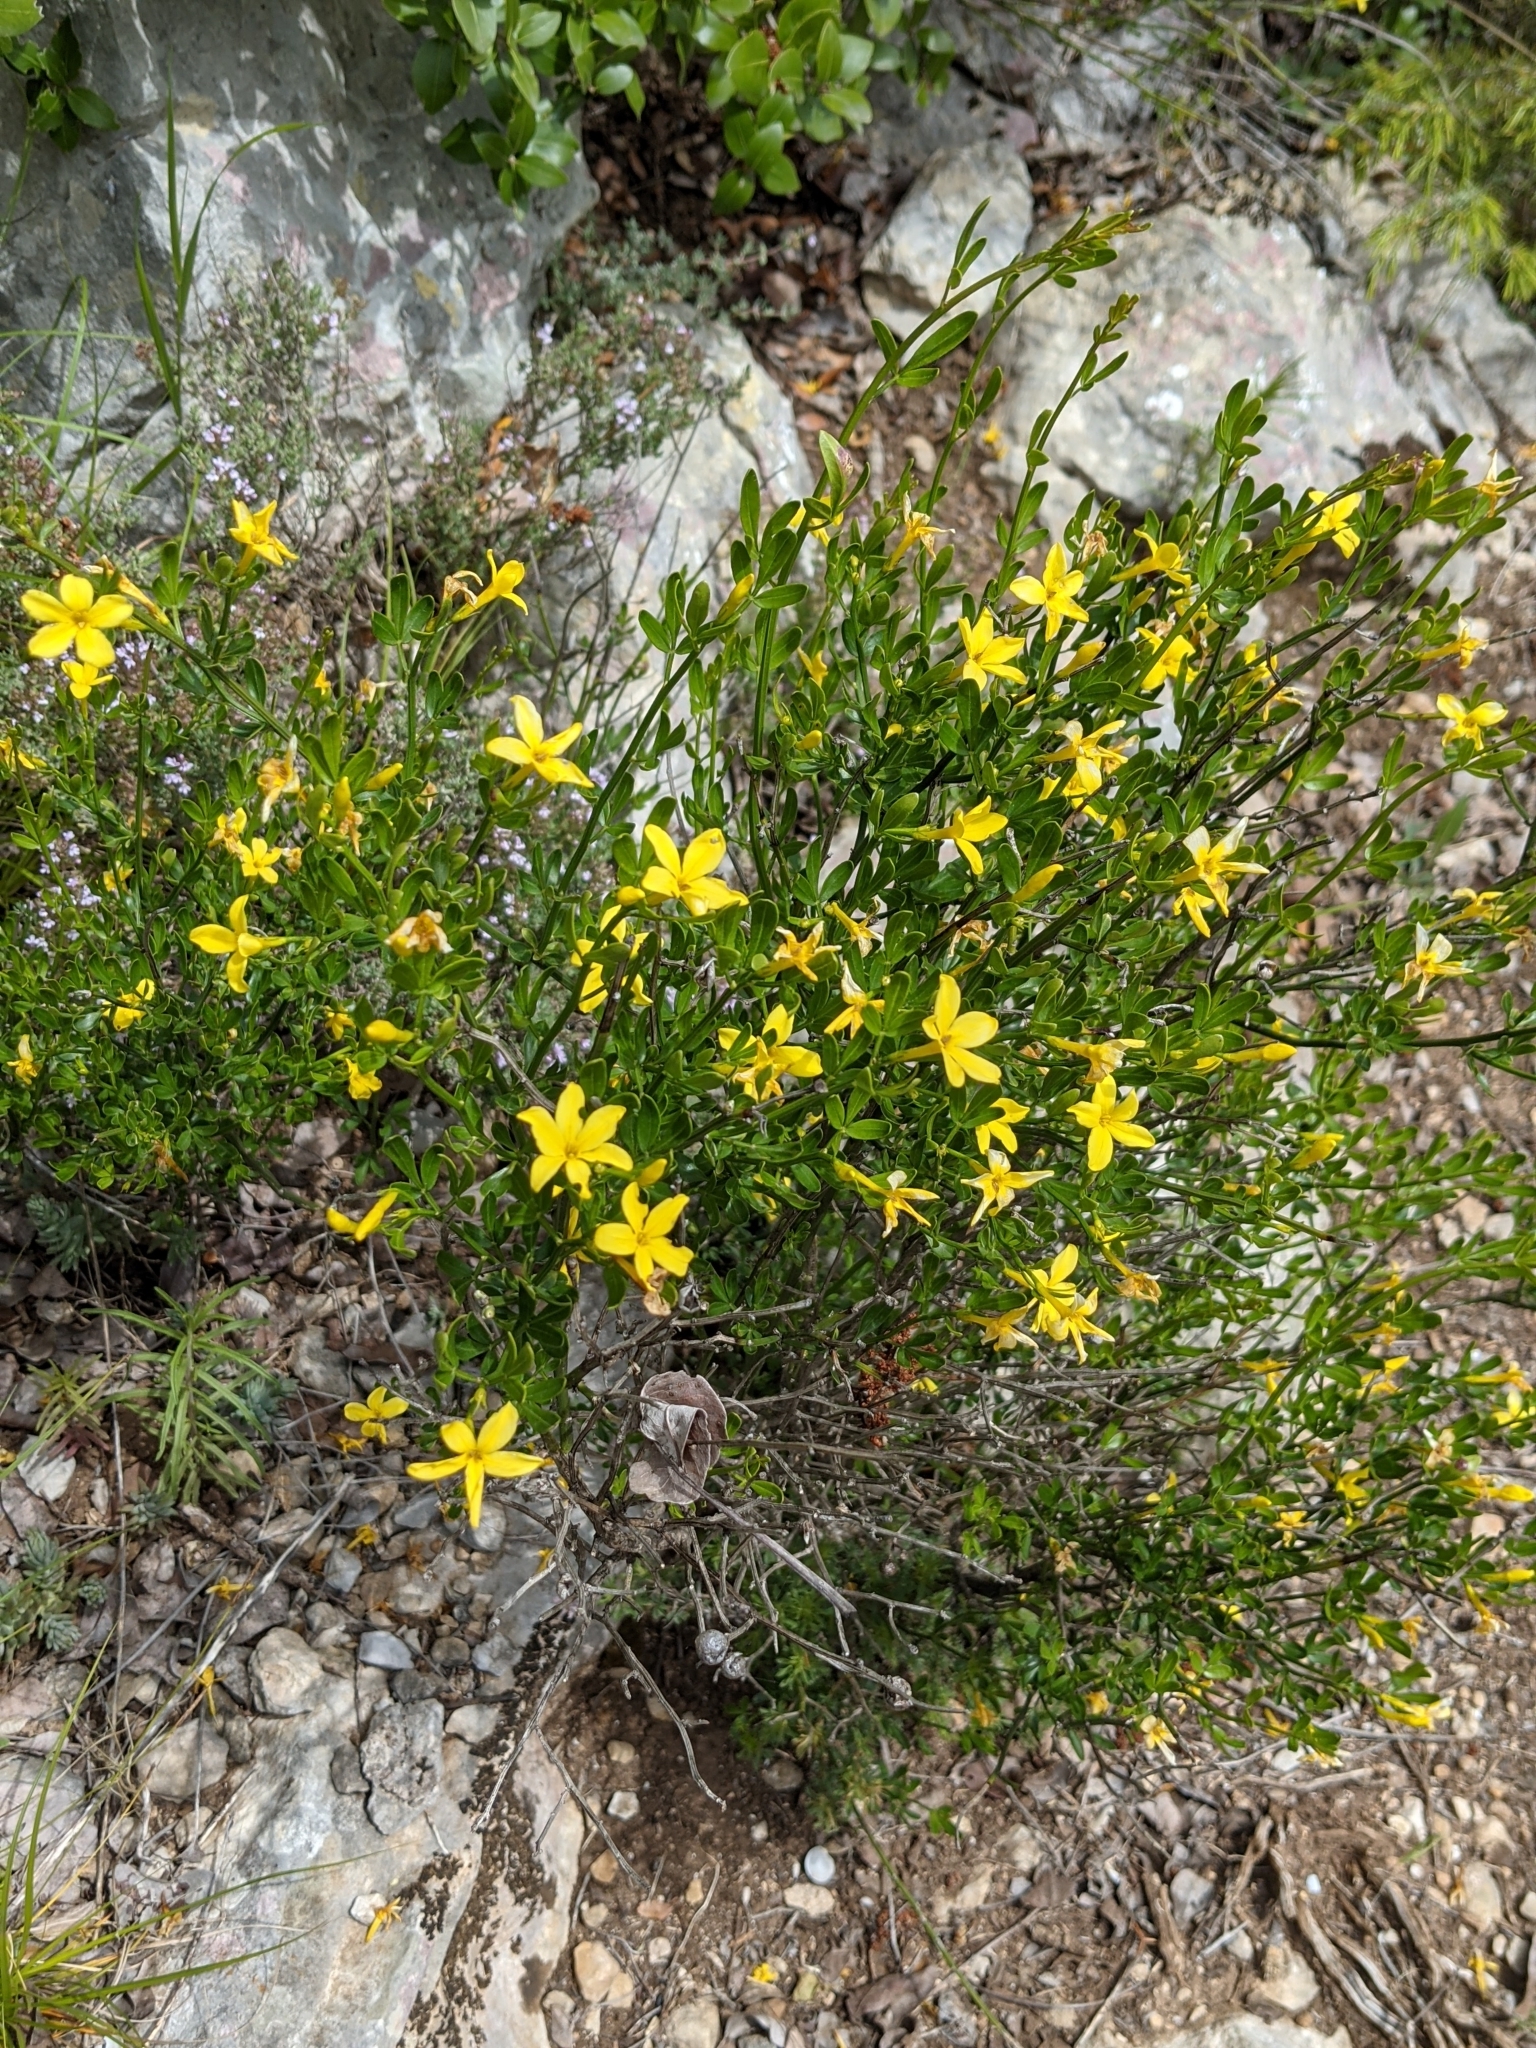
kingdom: Plantae
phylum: Tracheophyta
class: Magnoliopsida
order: Lamiales
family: Oleaceae
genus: Chrysojasminum
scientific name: Chrysojasminum fruticans
